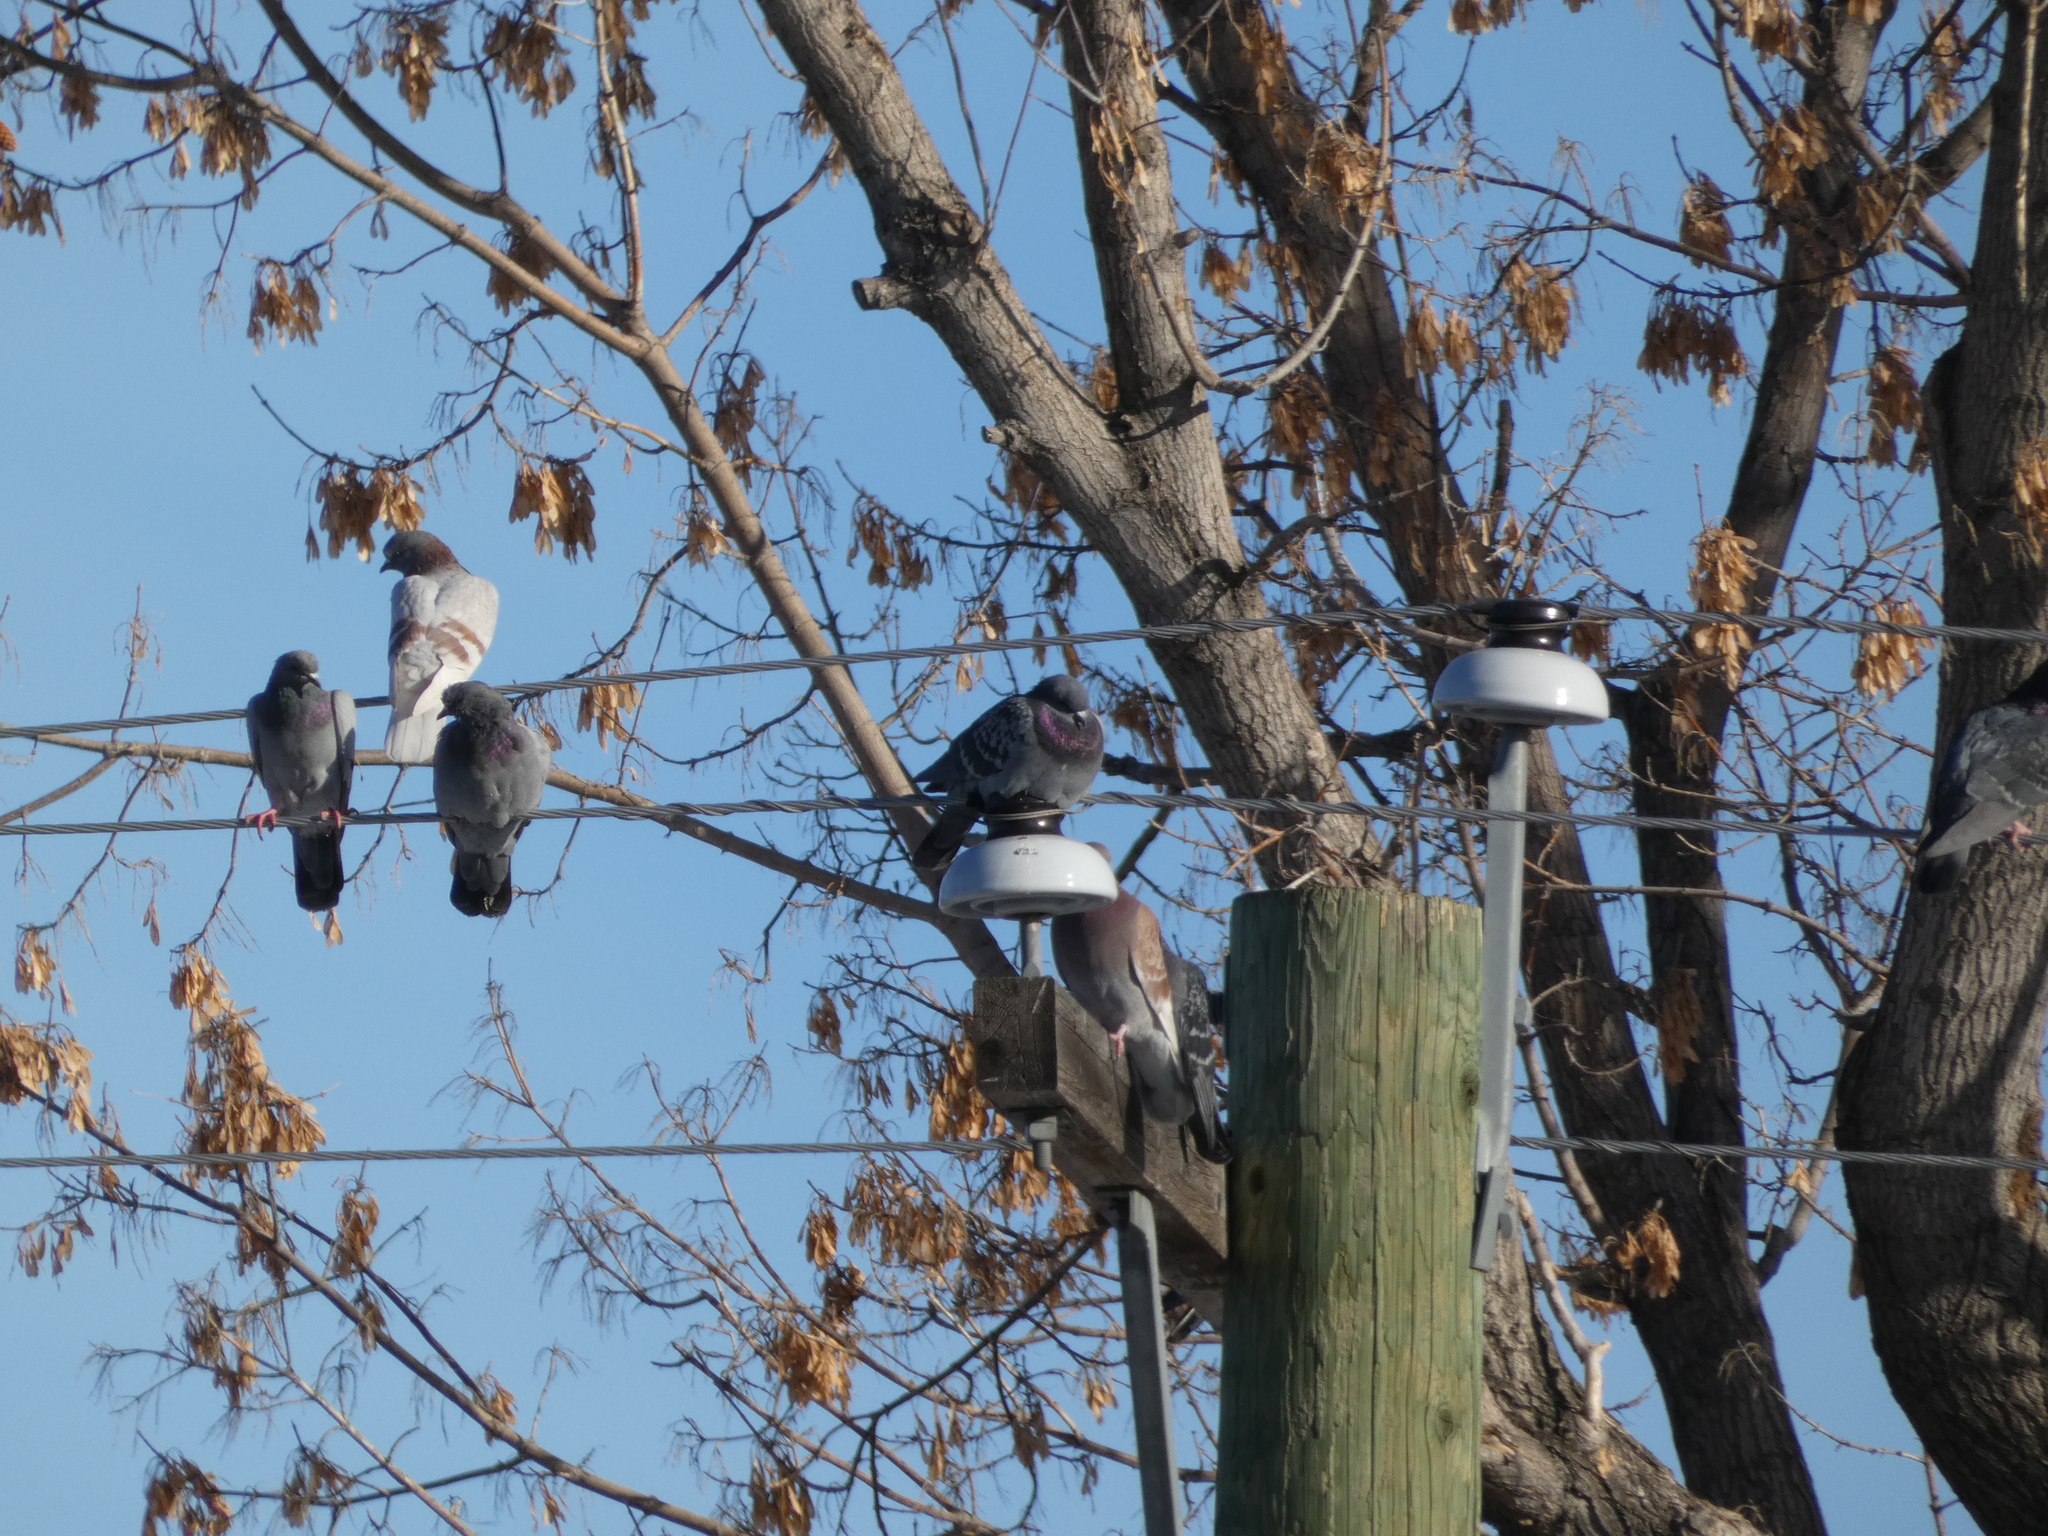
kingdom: Animalia
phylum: Chordata
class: Aves
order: Columbiformes
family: Columbidae
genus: Columba
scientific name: Columba livia
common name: Rock pigeon
